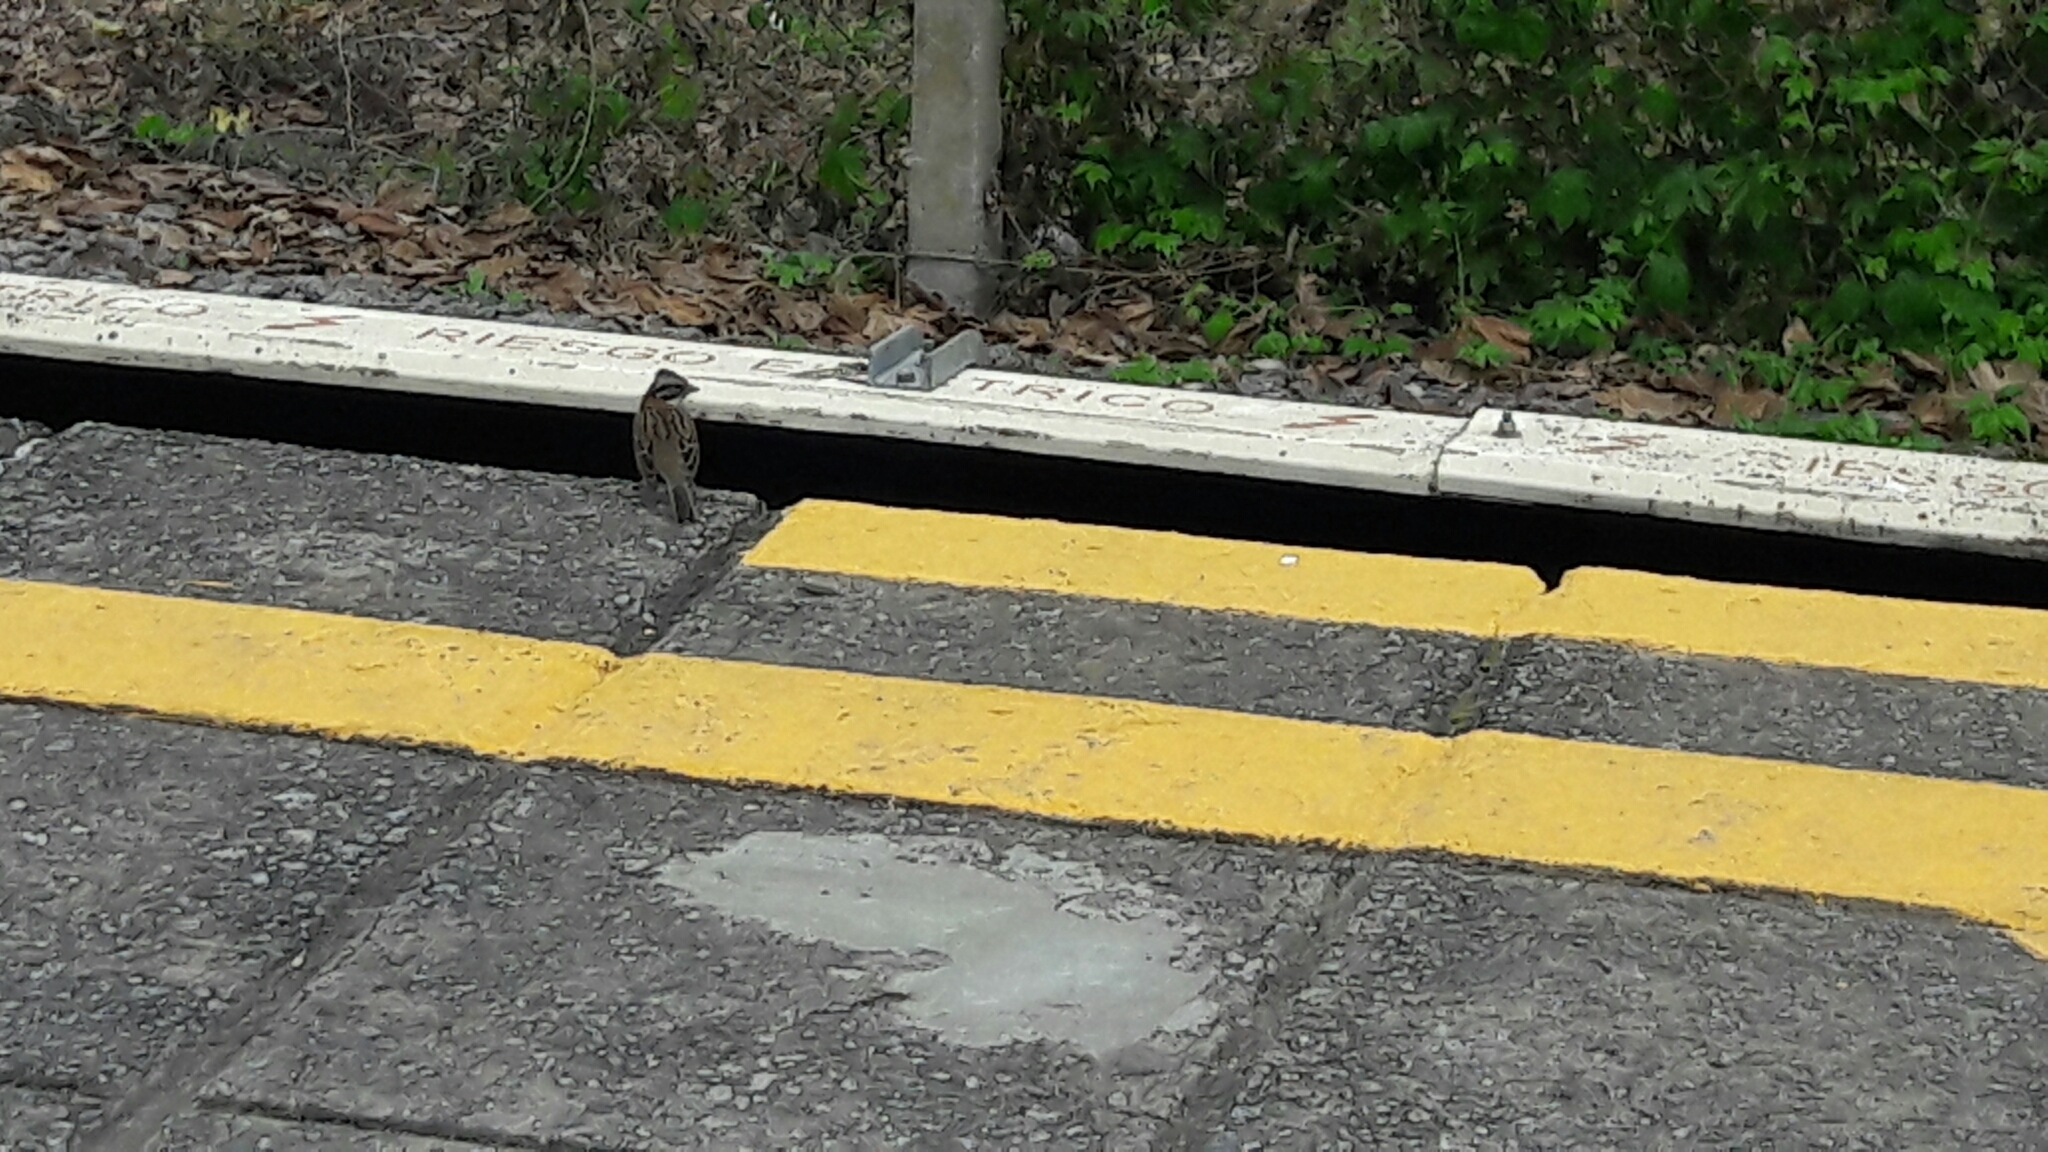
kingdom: Animalia
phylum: Chordata
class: Aves
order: Passeriformes
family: Passerellidae
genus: Zonotrichia
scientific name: Zonotrichia capensis
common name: Rufous-collared sparrow
